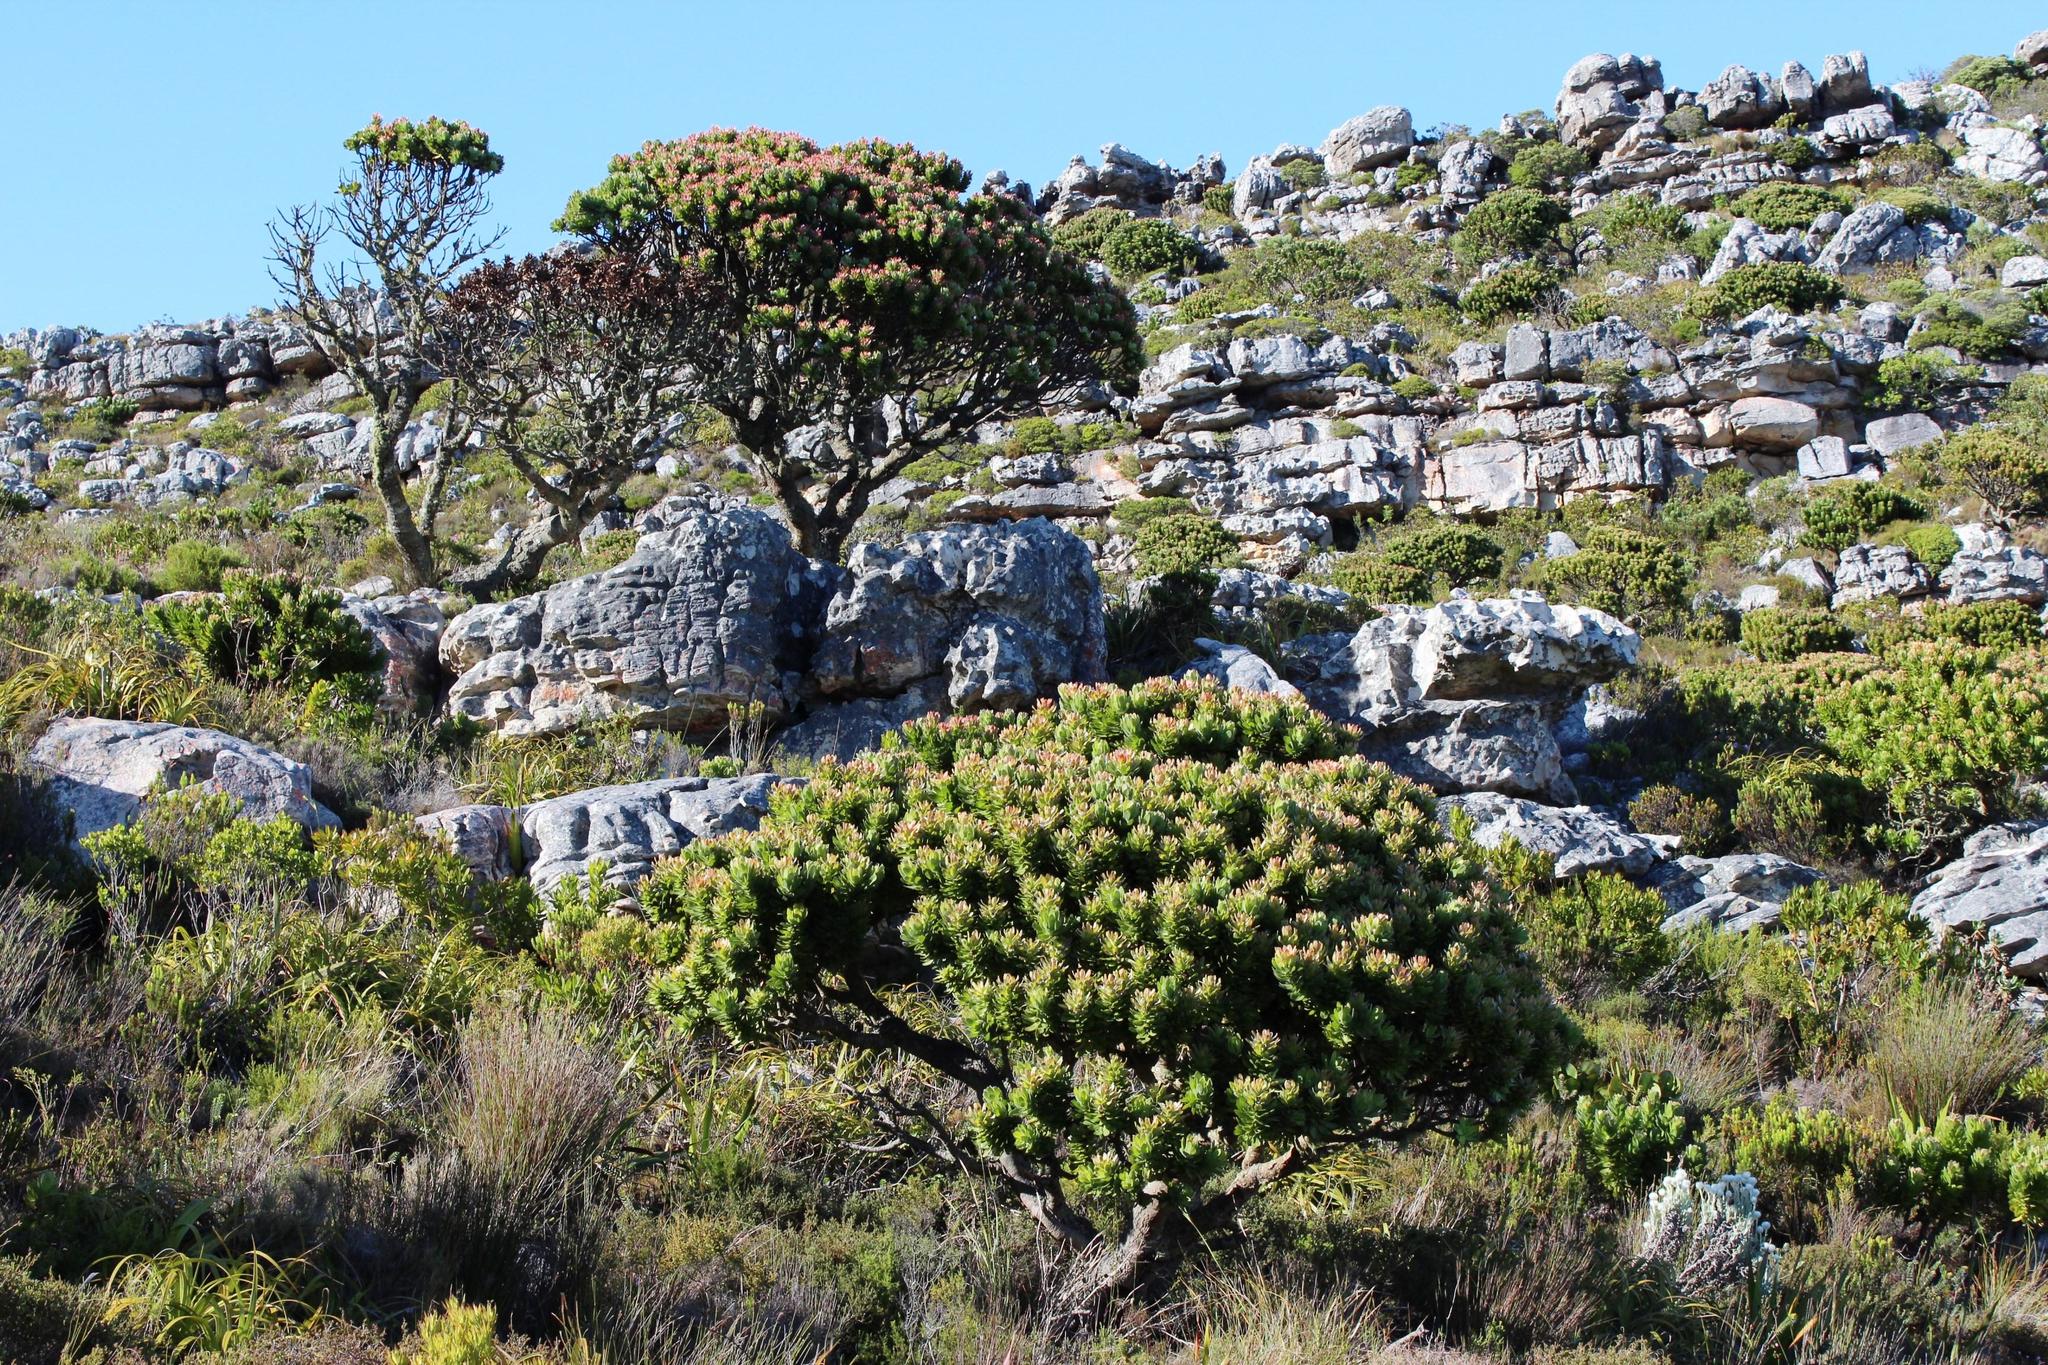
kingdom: Plantae
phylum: Tracheophyta
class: Magnoliopsida
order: Proteales
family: Proteaceae
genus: Mimetes
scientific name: Mimetes fimbriifolius
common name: Fringed bottlebrush
